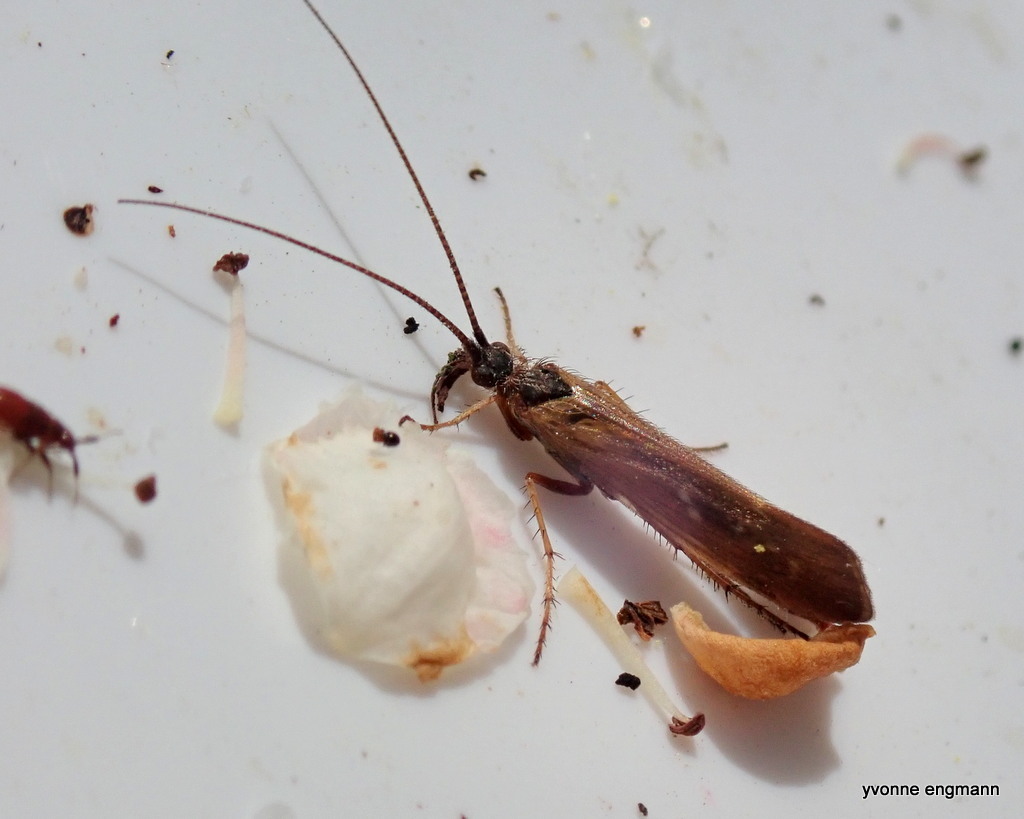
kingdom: Animalia
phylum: Arthropoda
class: Insecta
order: Trichoptera
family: Limnephilidae
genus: Limnephilus
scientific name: Limnephilus auricula
